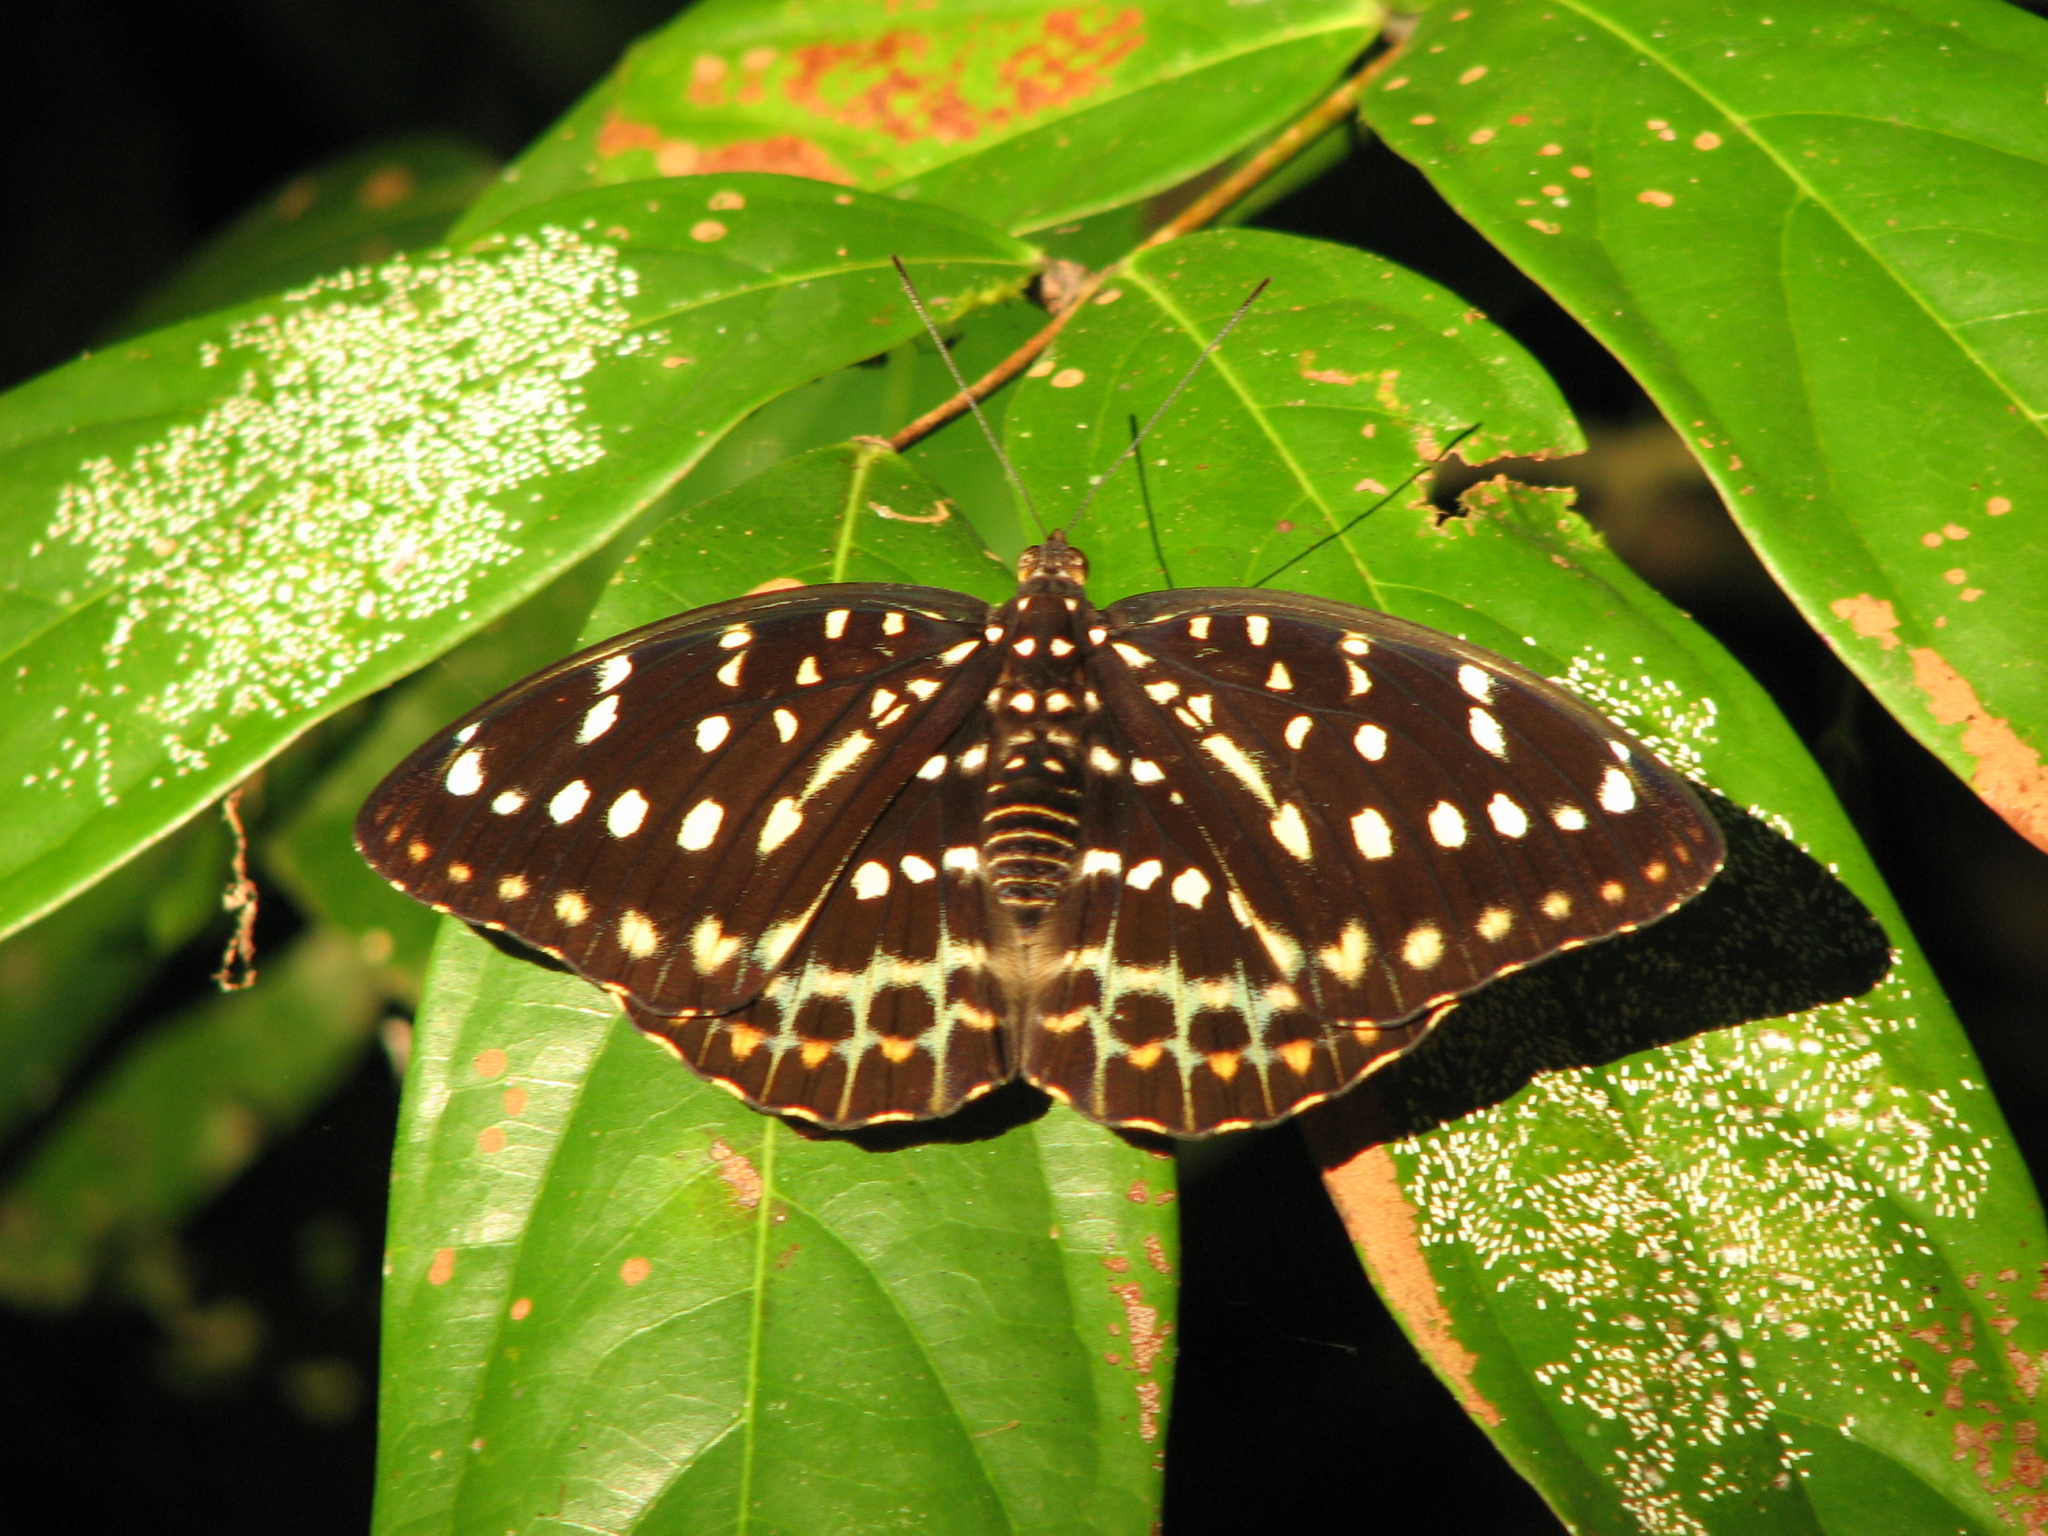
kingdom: Animalia
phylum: Arthropoda
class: Insecta
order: Lepidoptera
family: Nymphalidae
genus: Lexias
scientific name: Lexias dirtea
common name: Black-tipped archduke
